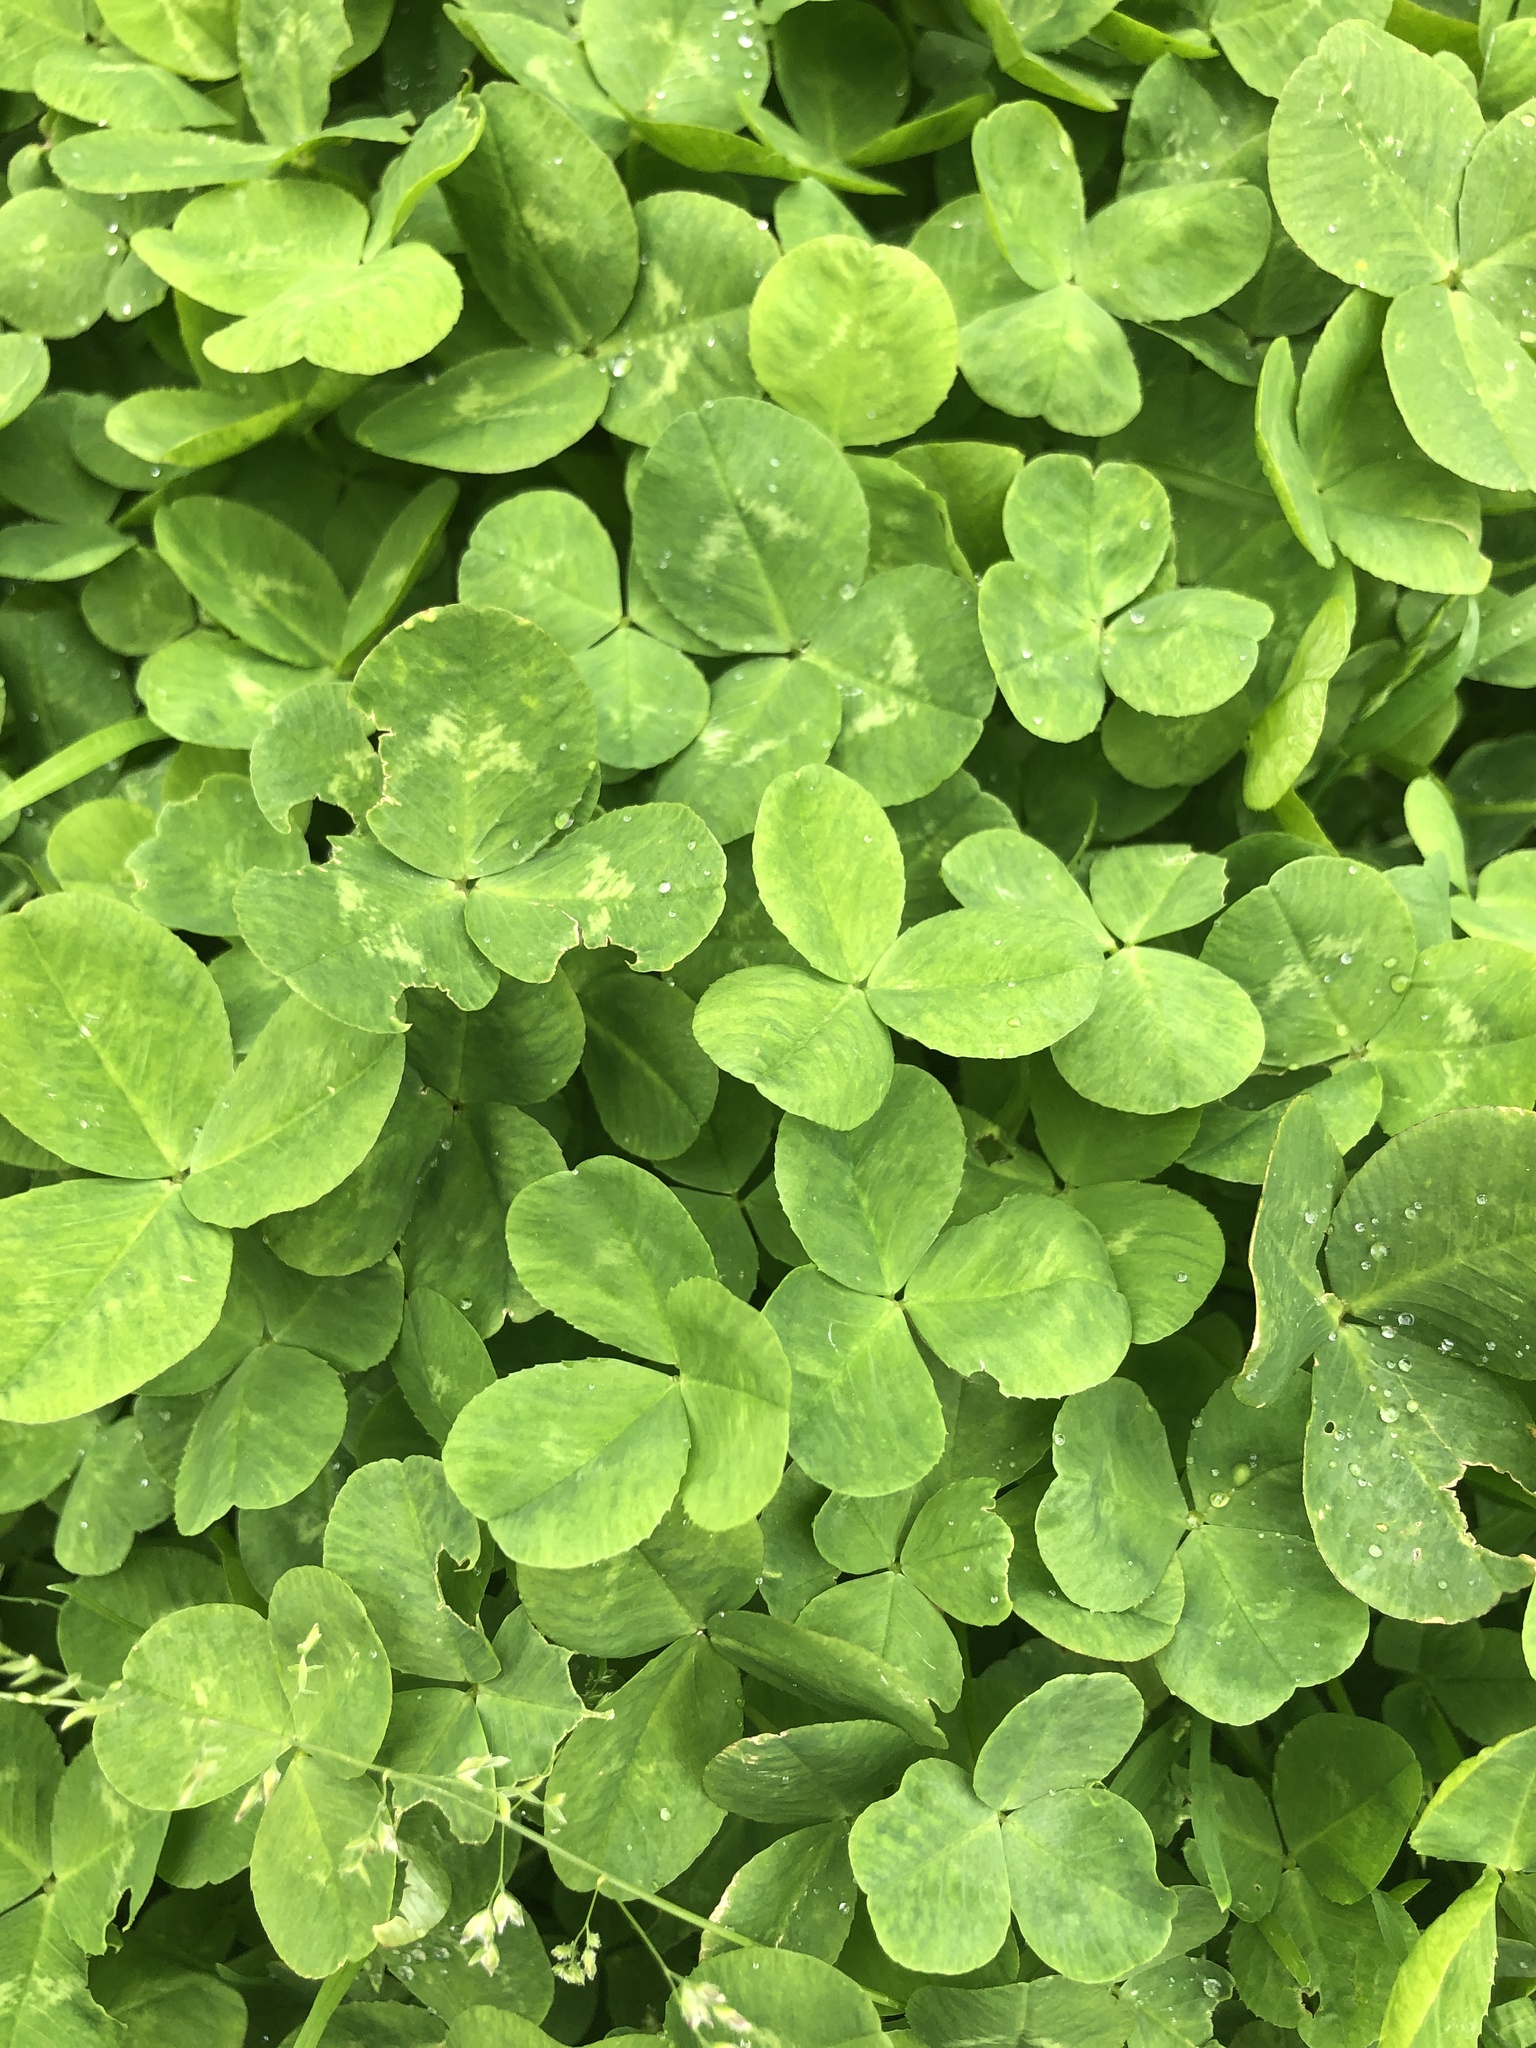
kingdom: Plantae
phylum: Tracheophyta
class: Magnoliopsida
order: Fabales
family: Fabaceae
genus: Trifolium
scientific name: Trifolium repens
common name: White clover
